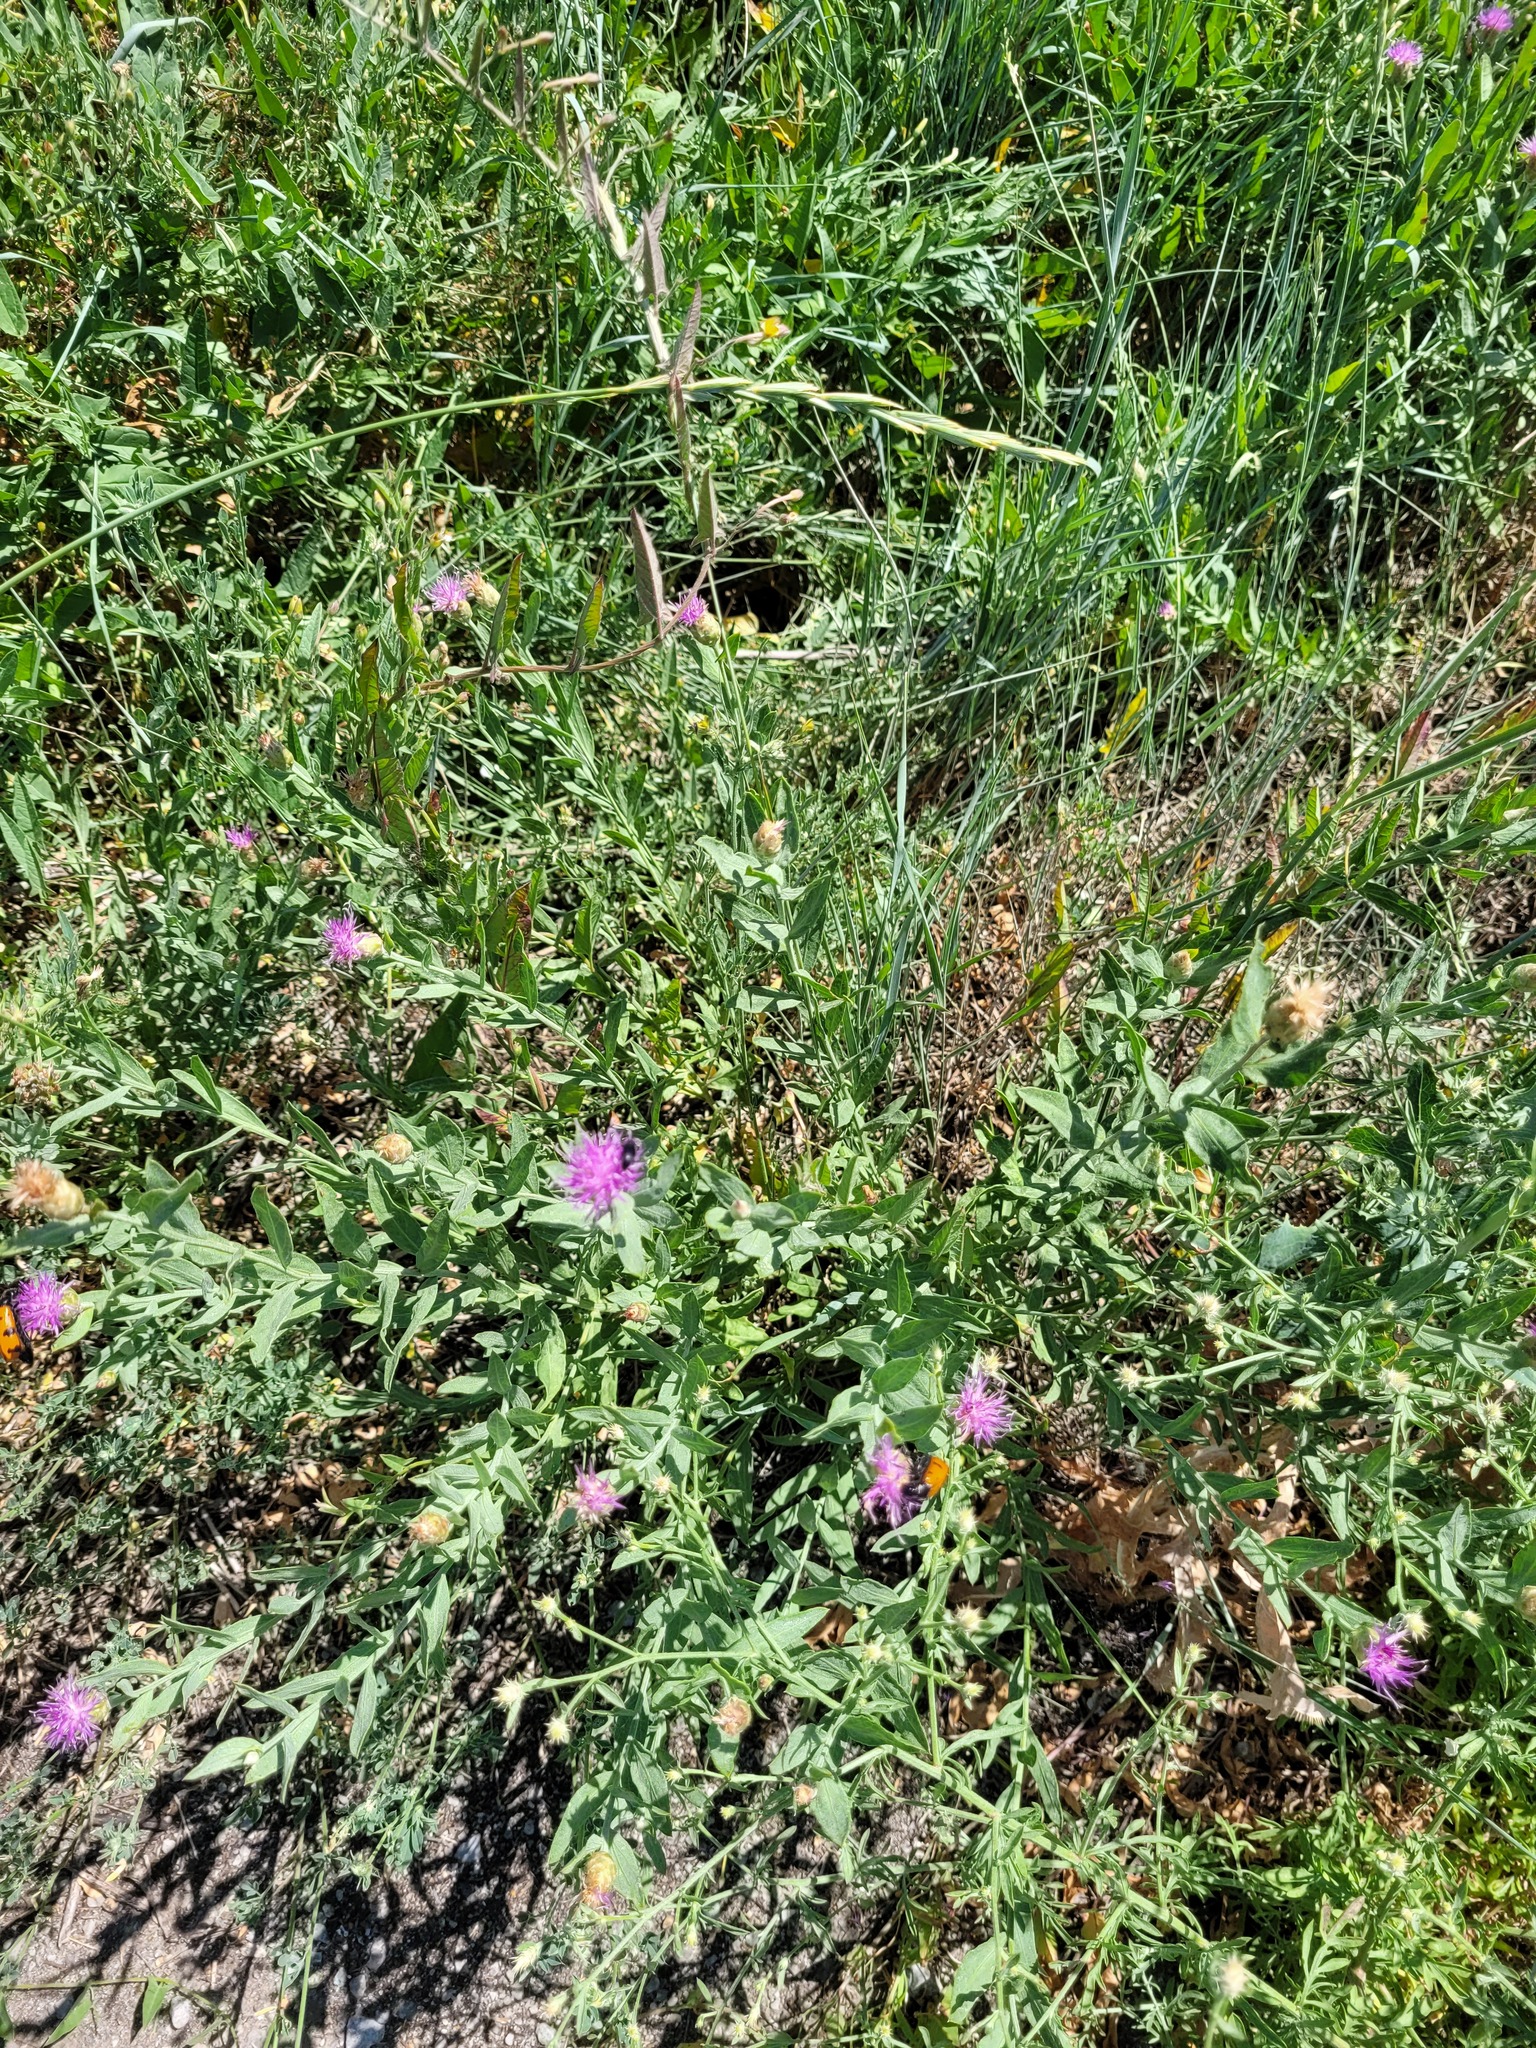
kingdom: Plantae
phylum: Tracheophyta
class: Magnoliopsida
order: Asterales
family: Asteraceae
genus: Leuzea
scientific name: Leuzea repens
